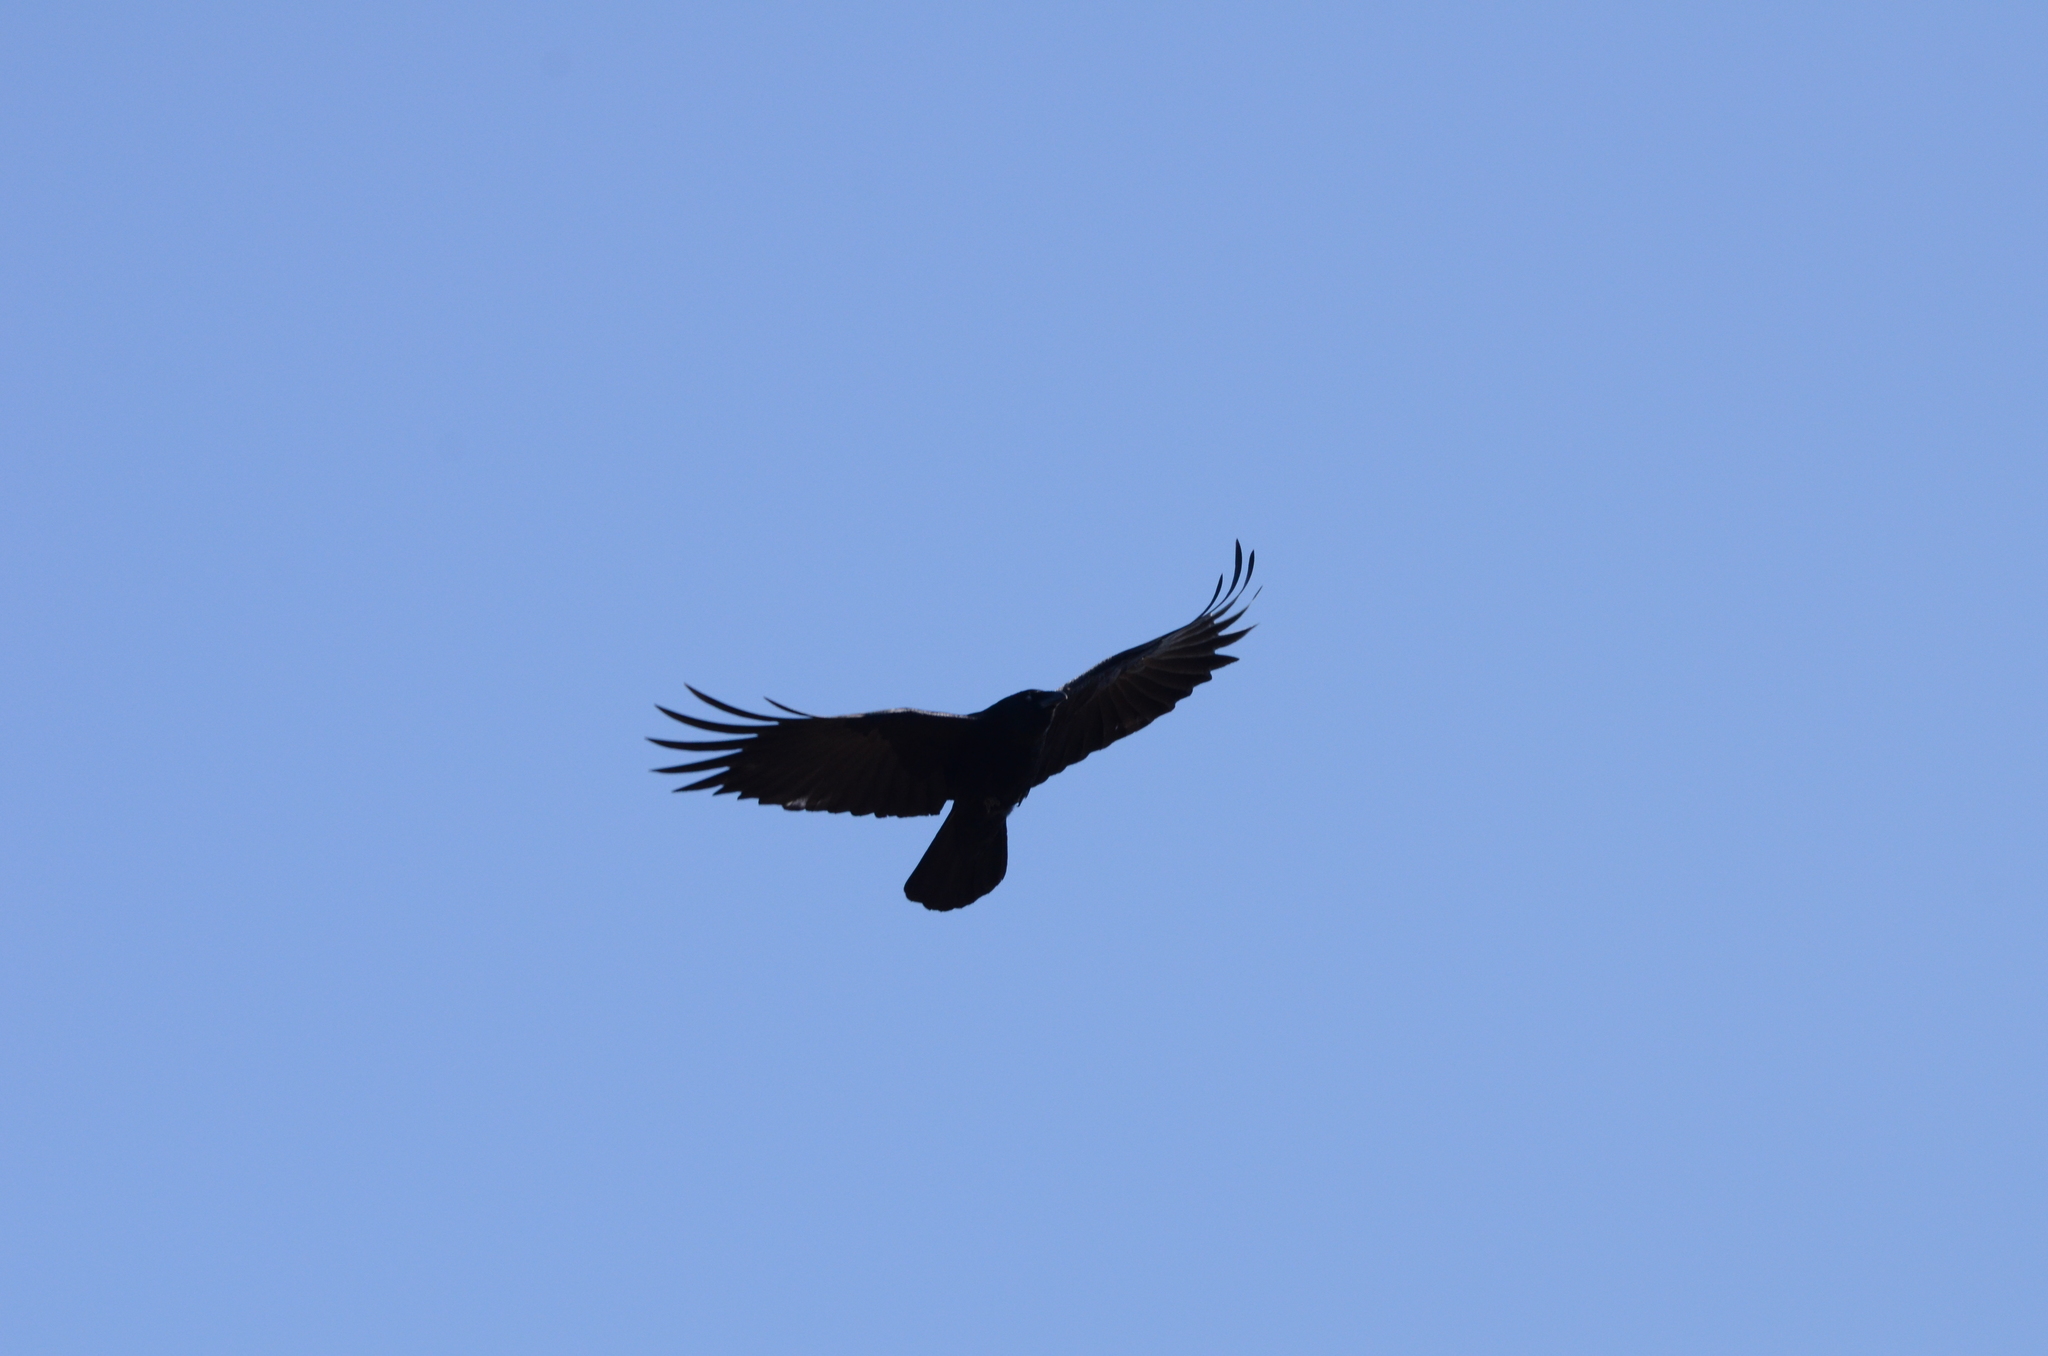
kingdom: Animalia
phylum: Chordata
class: Aves
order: Passeriformes
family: Corvidae
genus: Corvus
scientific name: Corvus corone
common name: Carrion crow
